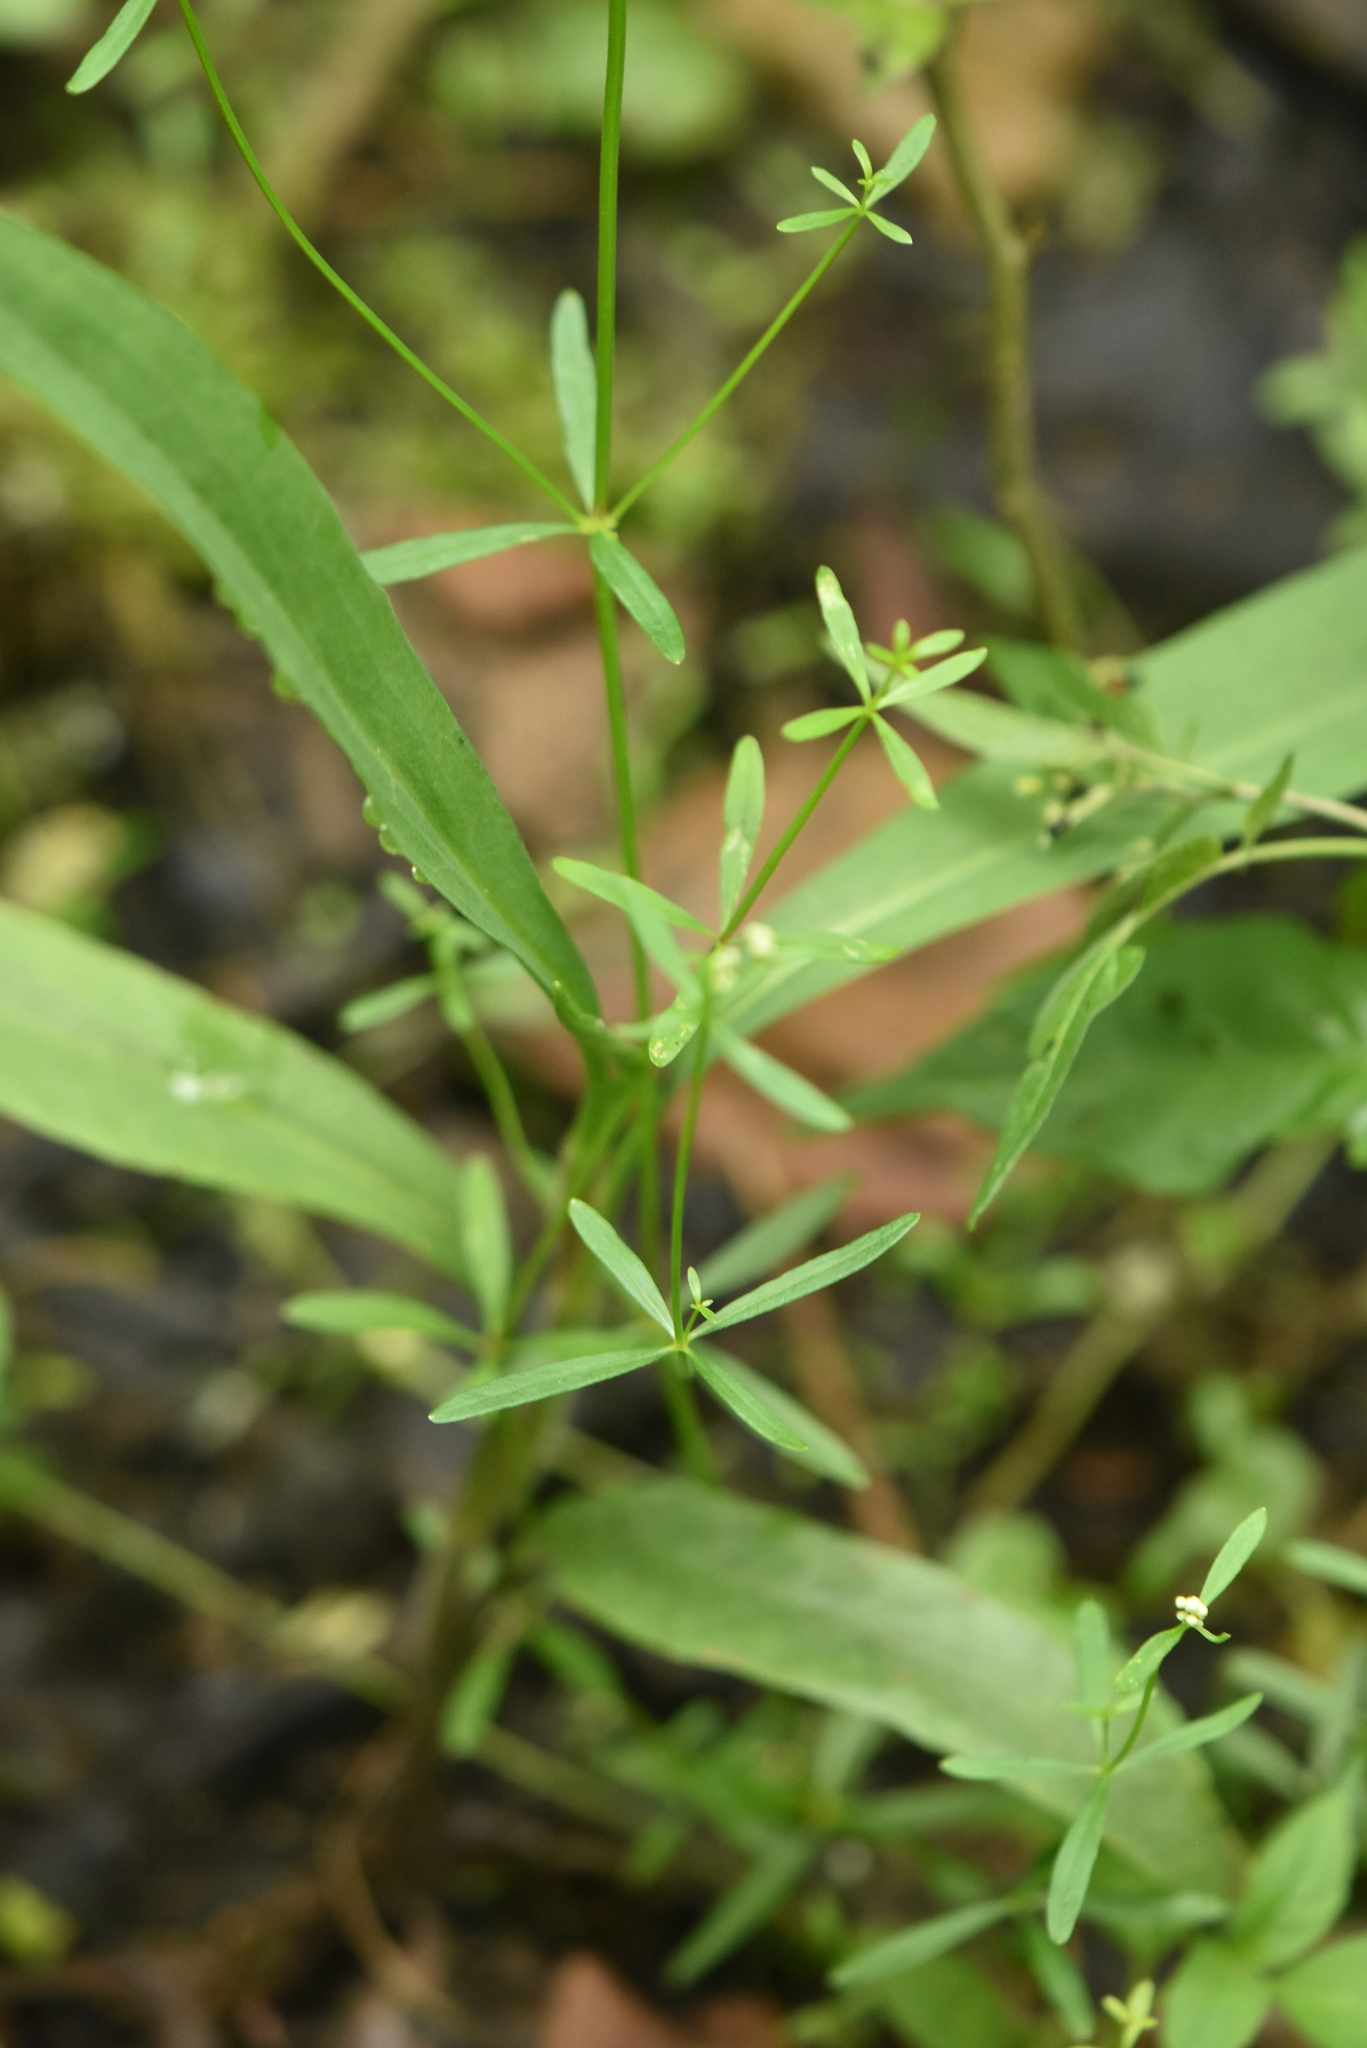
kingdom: Plantae
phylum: Tracheophyta
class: Magnoliopsida
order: Gentianales
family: Rubiaceae
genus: Galium
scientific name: Galium palustre
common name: Common marsh-bedstraw
